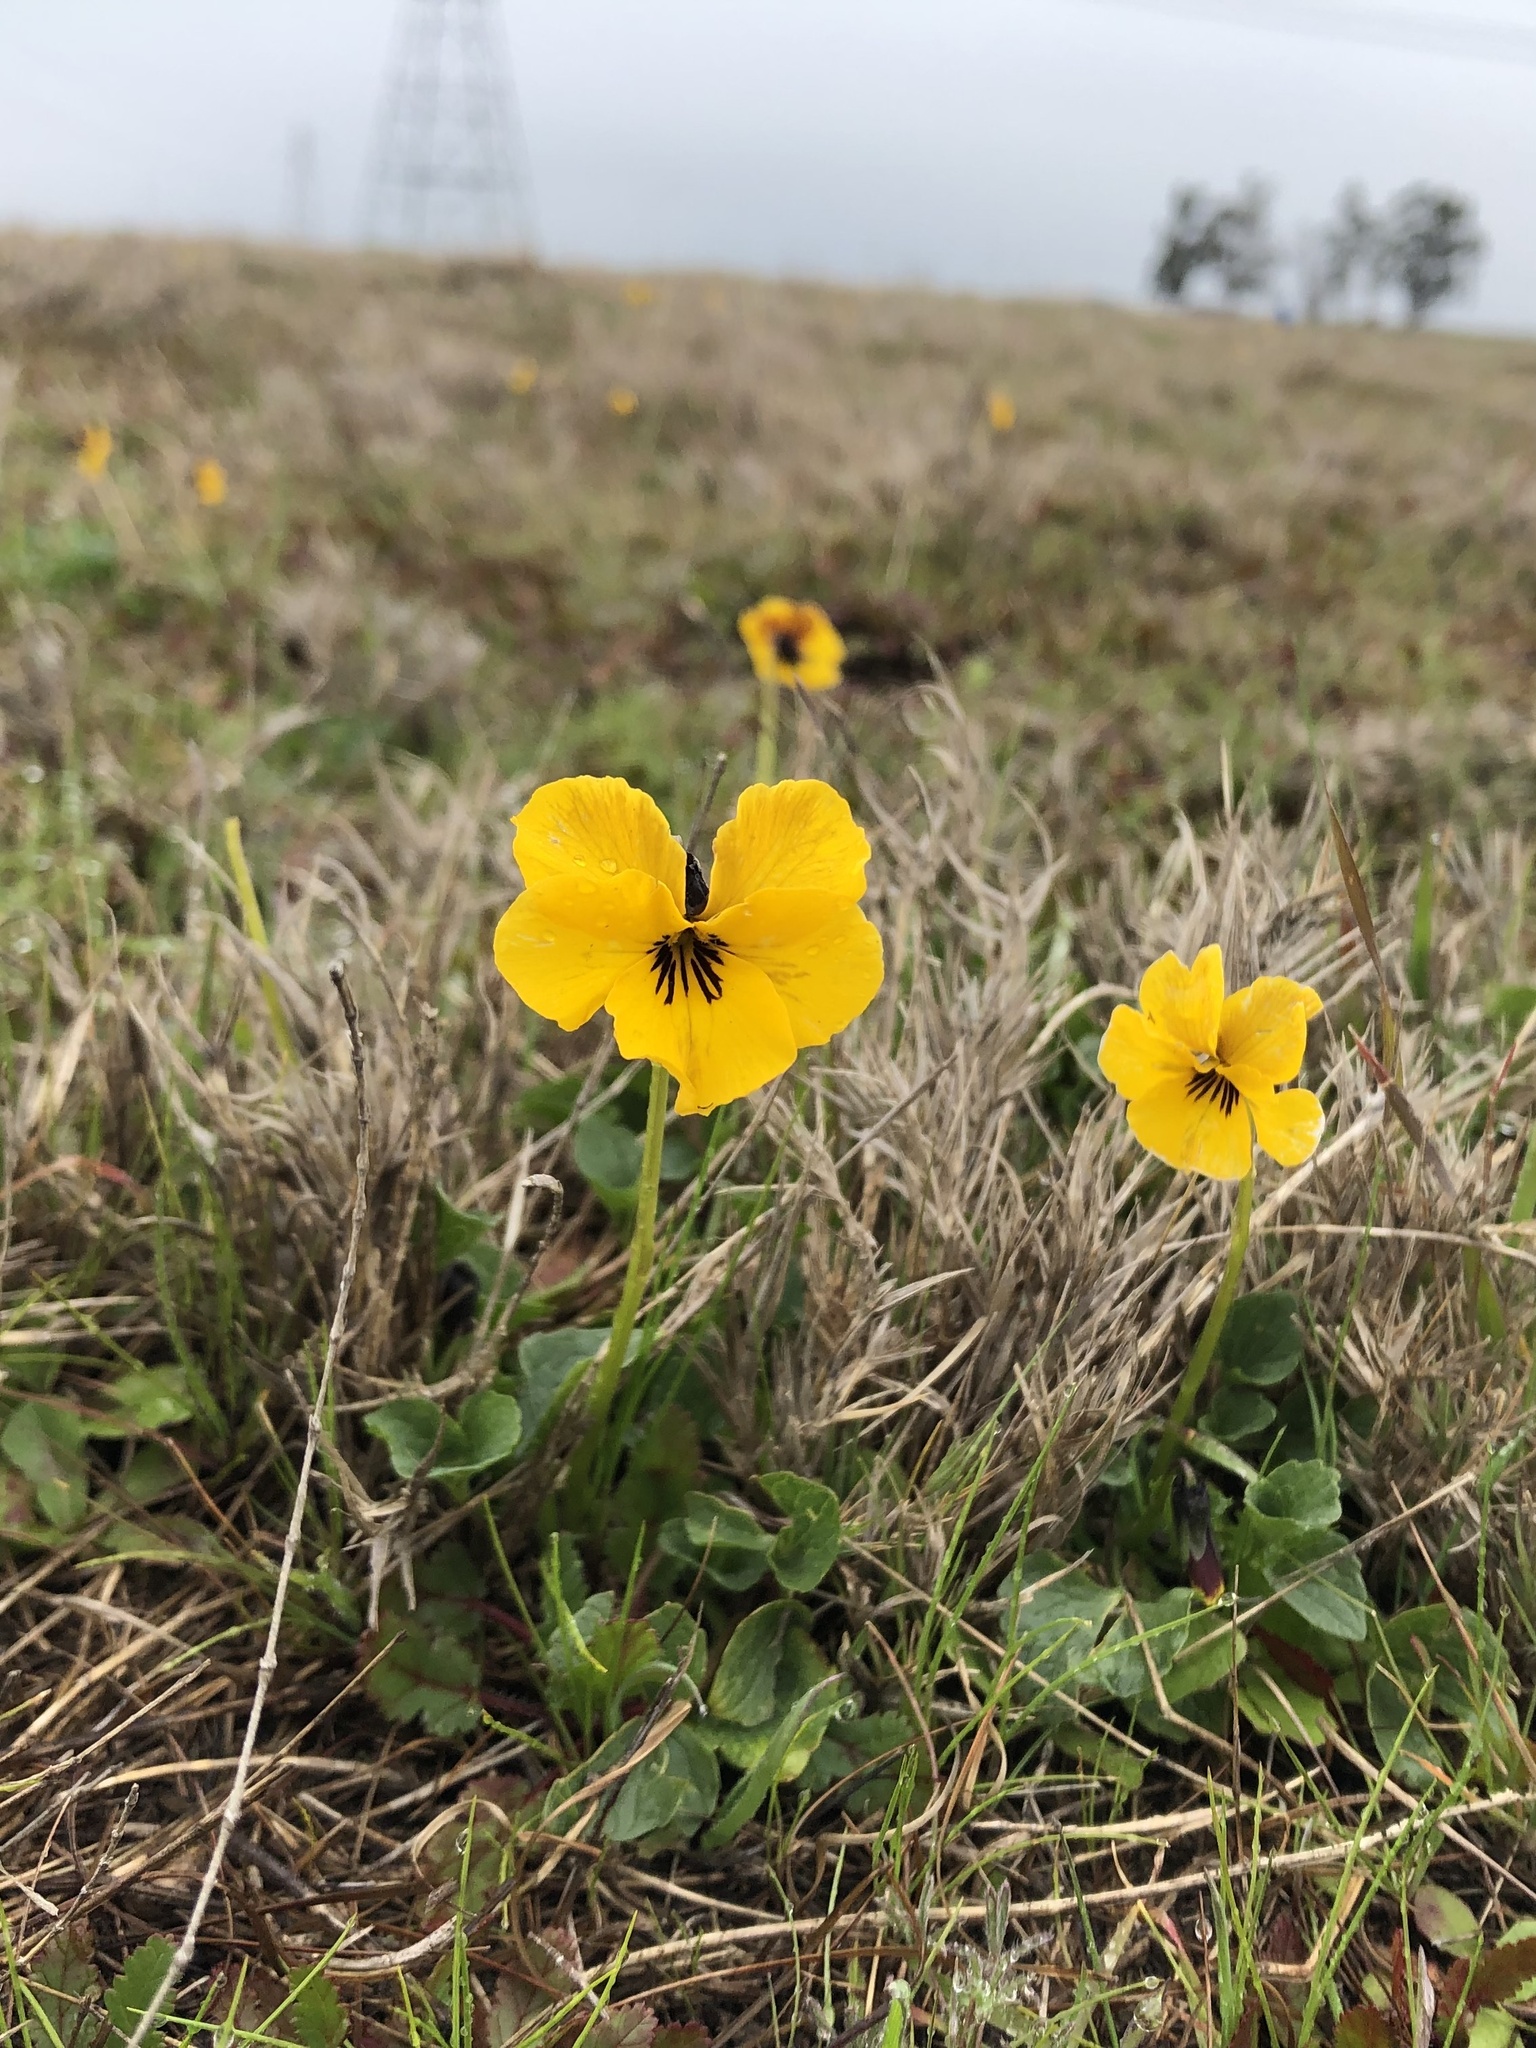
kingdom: Plantae
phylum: Tracheophyta
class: Magnoliopsida
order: Malpighiales
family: Violaceae
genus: Viola
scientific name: Viola pedunculata
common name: California golden violet
